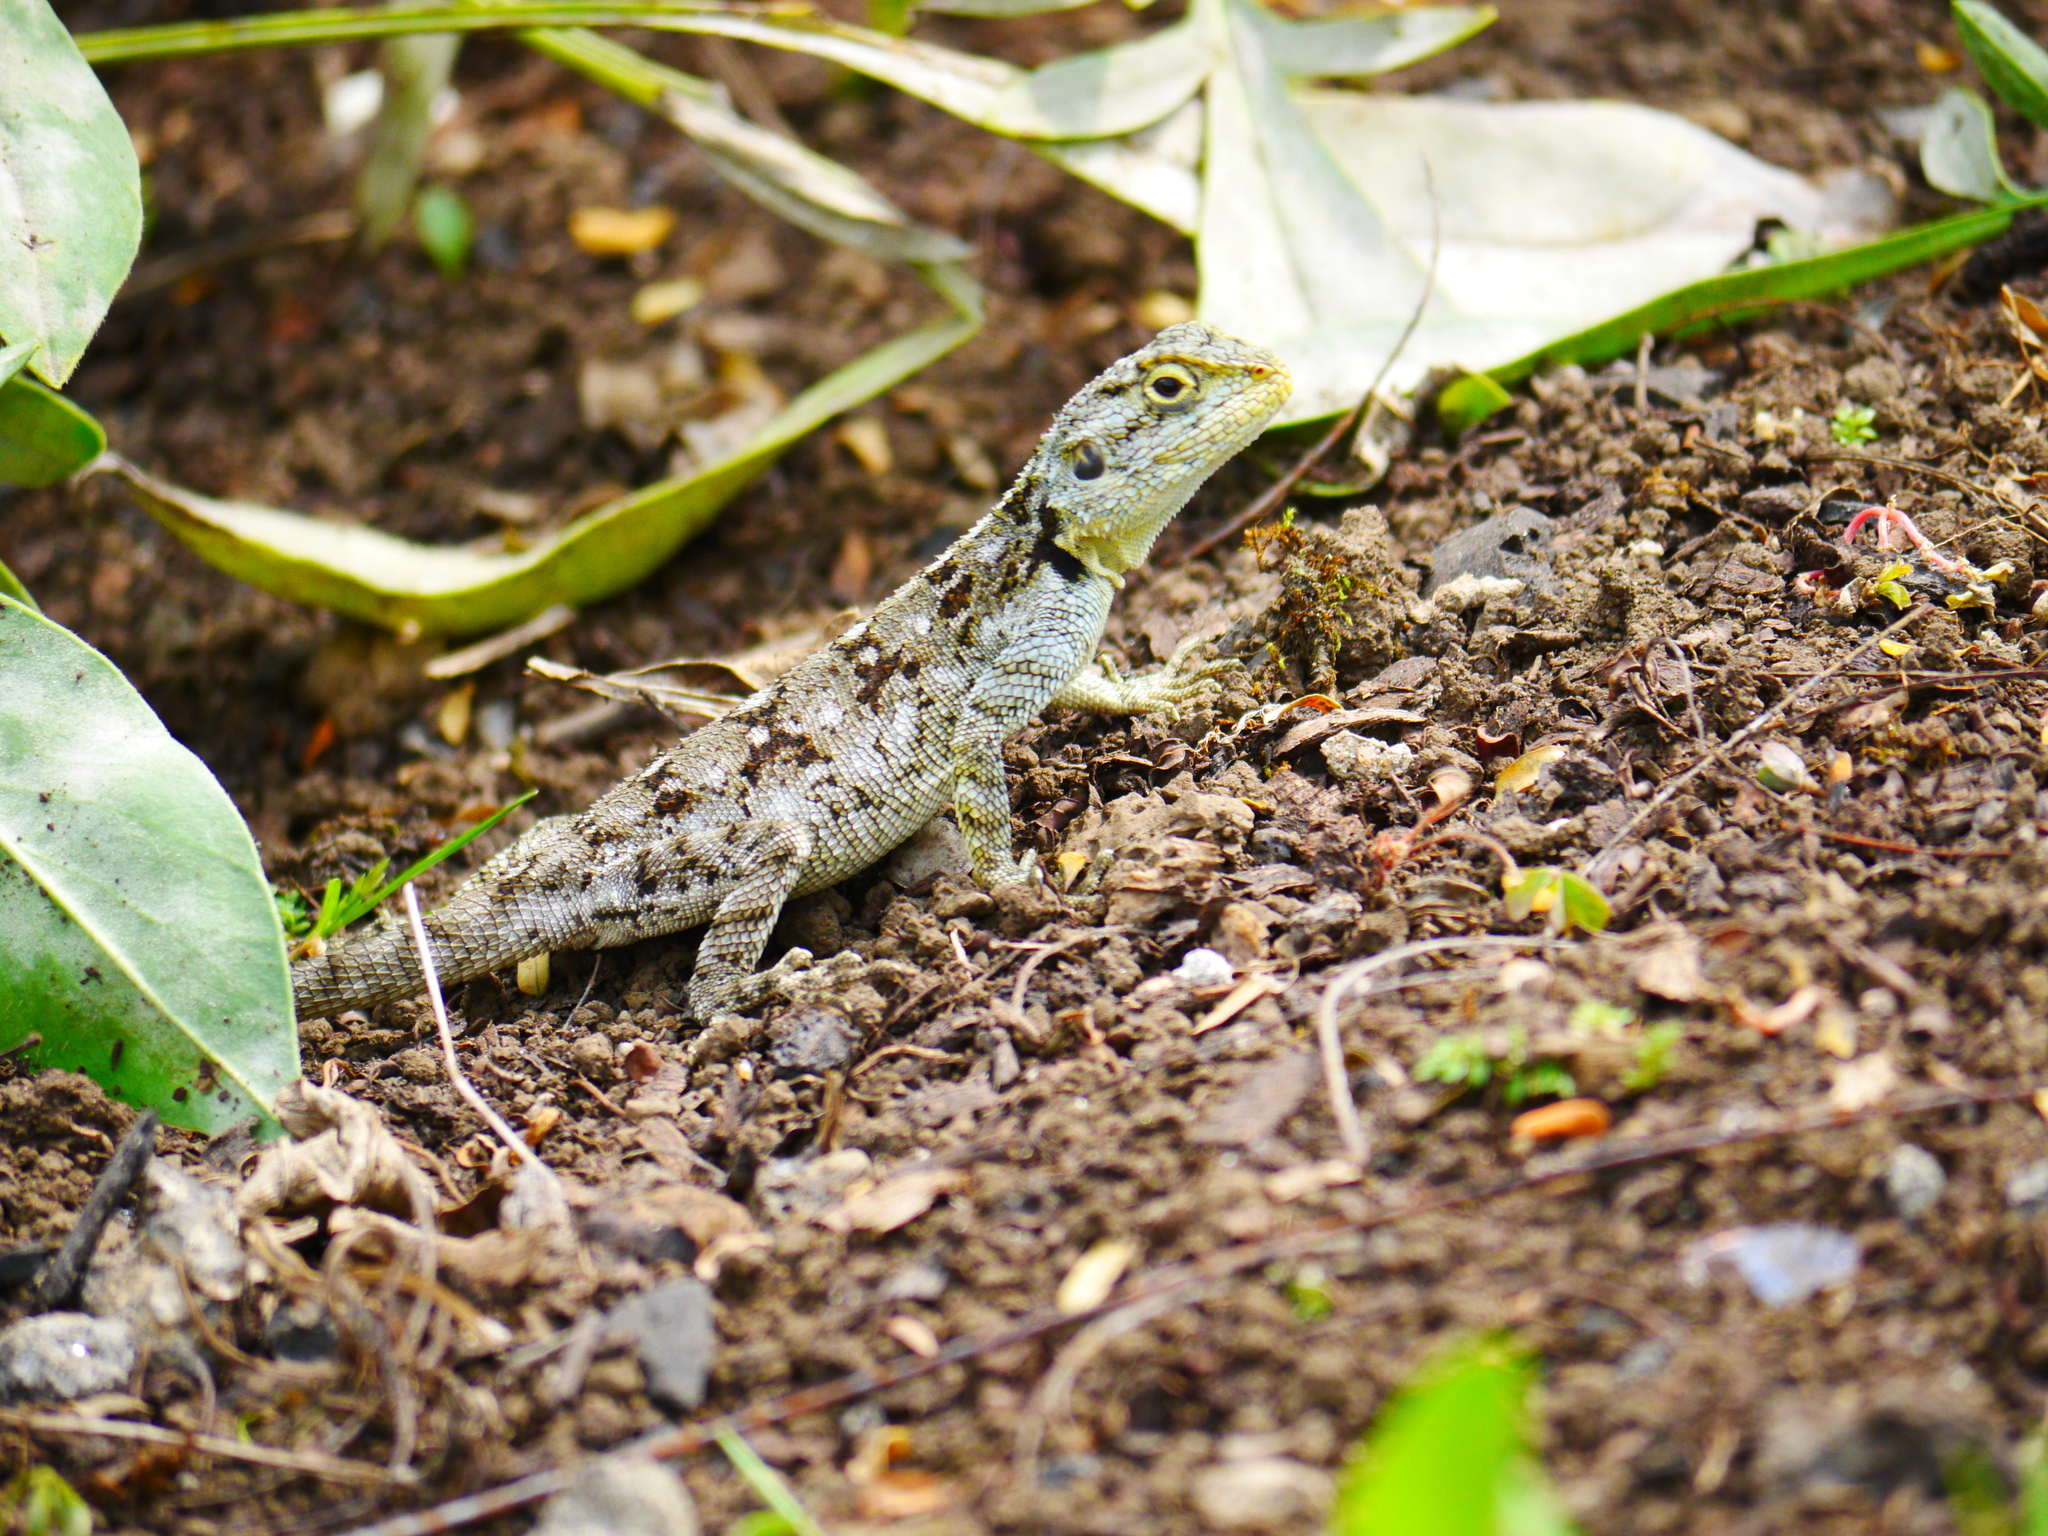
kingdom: Animalia
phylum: Chordata
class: Squamata
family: Agamidae
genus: Acanthocercus
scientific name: Acanthocercus
